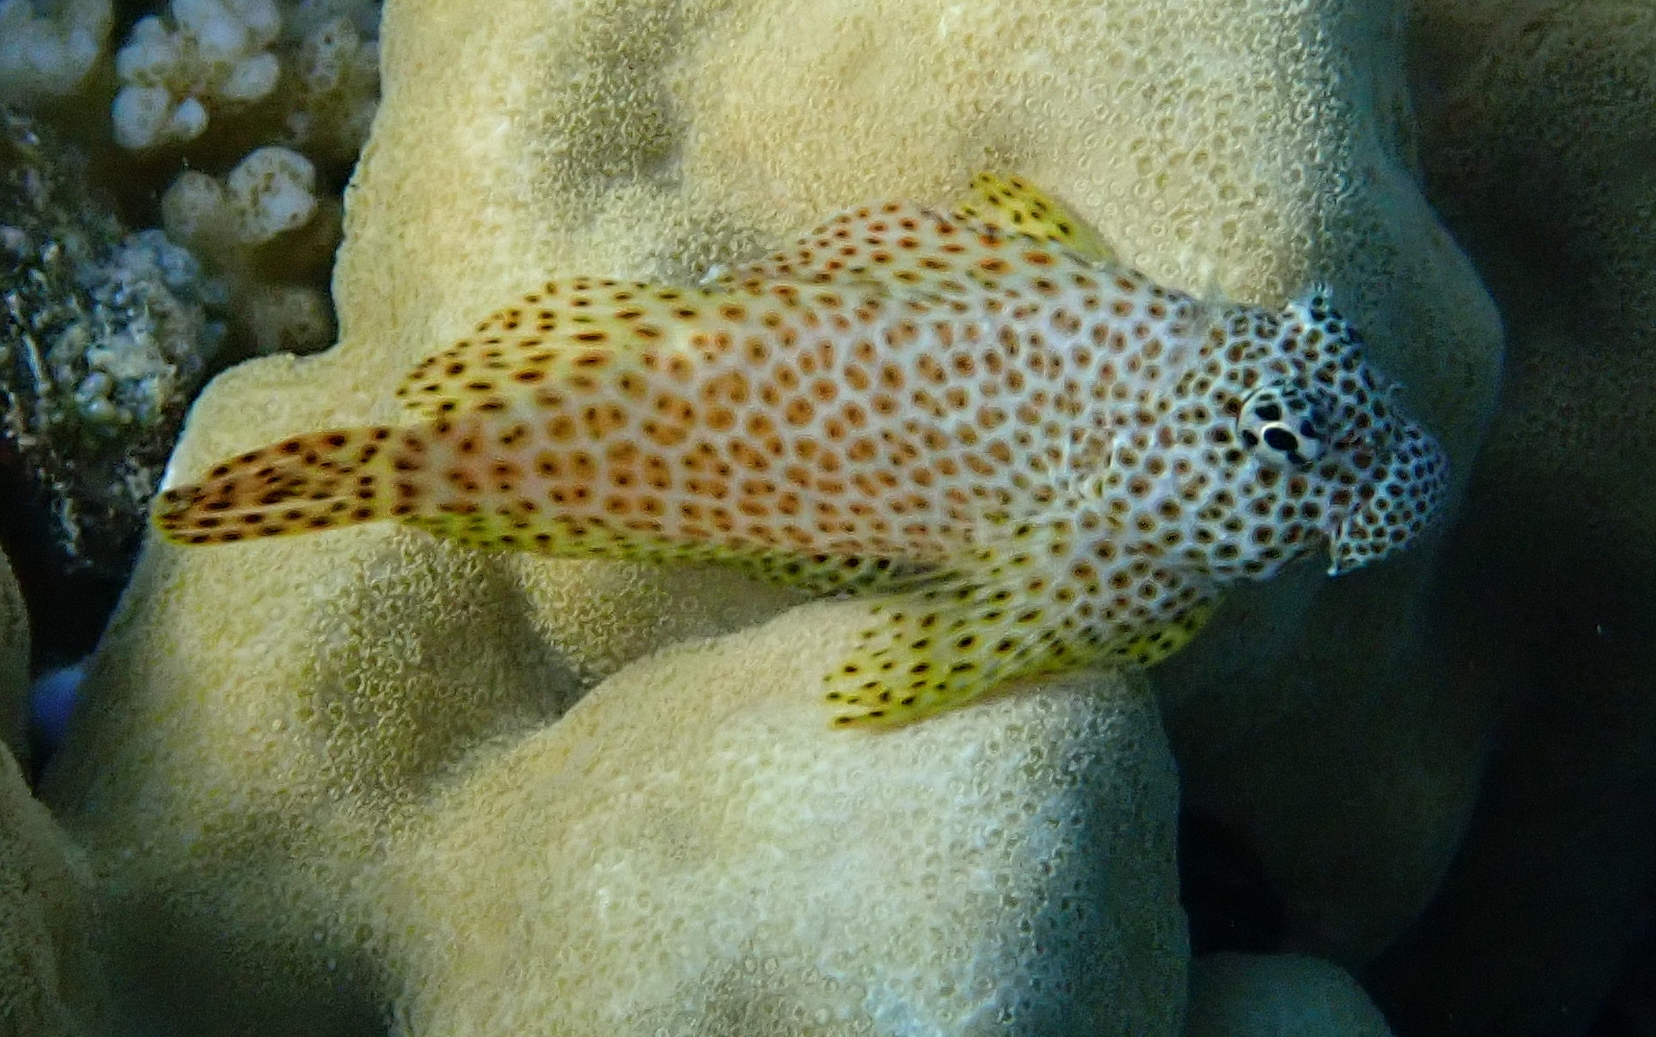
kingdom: Animalia
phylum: Chordata
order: Perciformes
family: Blenniidae
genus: Exallias
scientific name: Exallias brevis
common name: Leopard blenny
